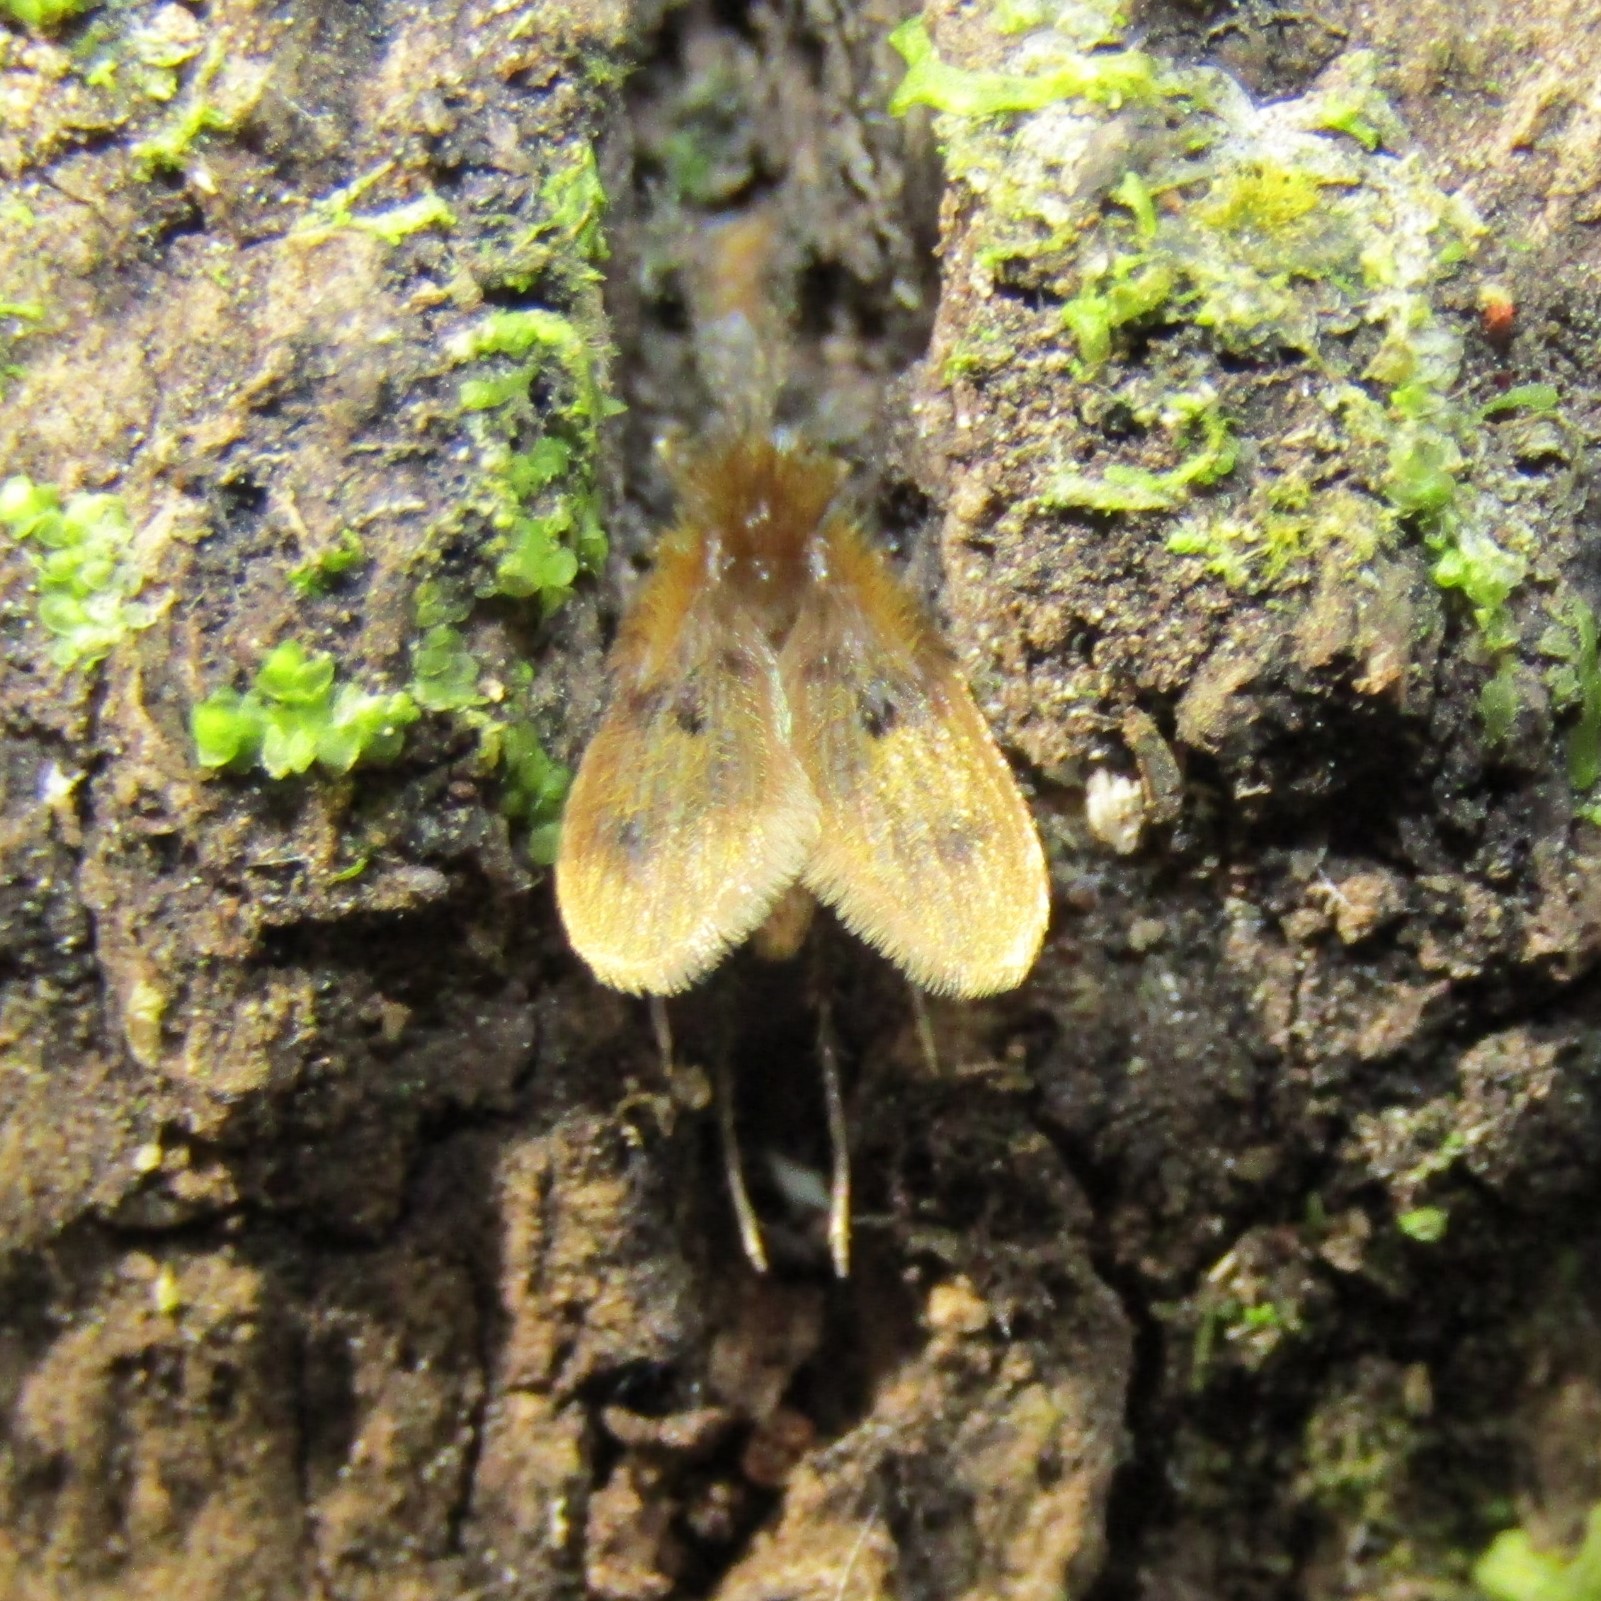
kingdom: Animalia
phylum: Arthropoda
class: Insecta
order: Diptera
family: Psychodidae
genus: Notofairchildia
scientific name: Notofairchildia zelandiae
